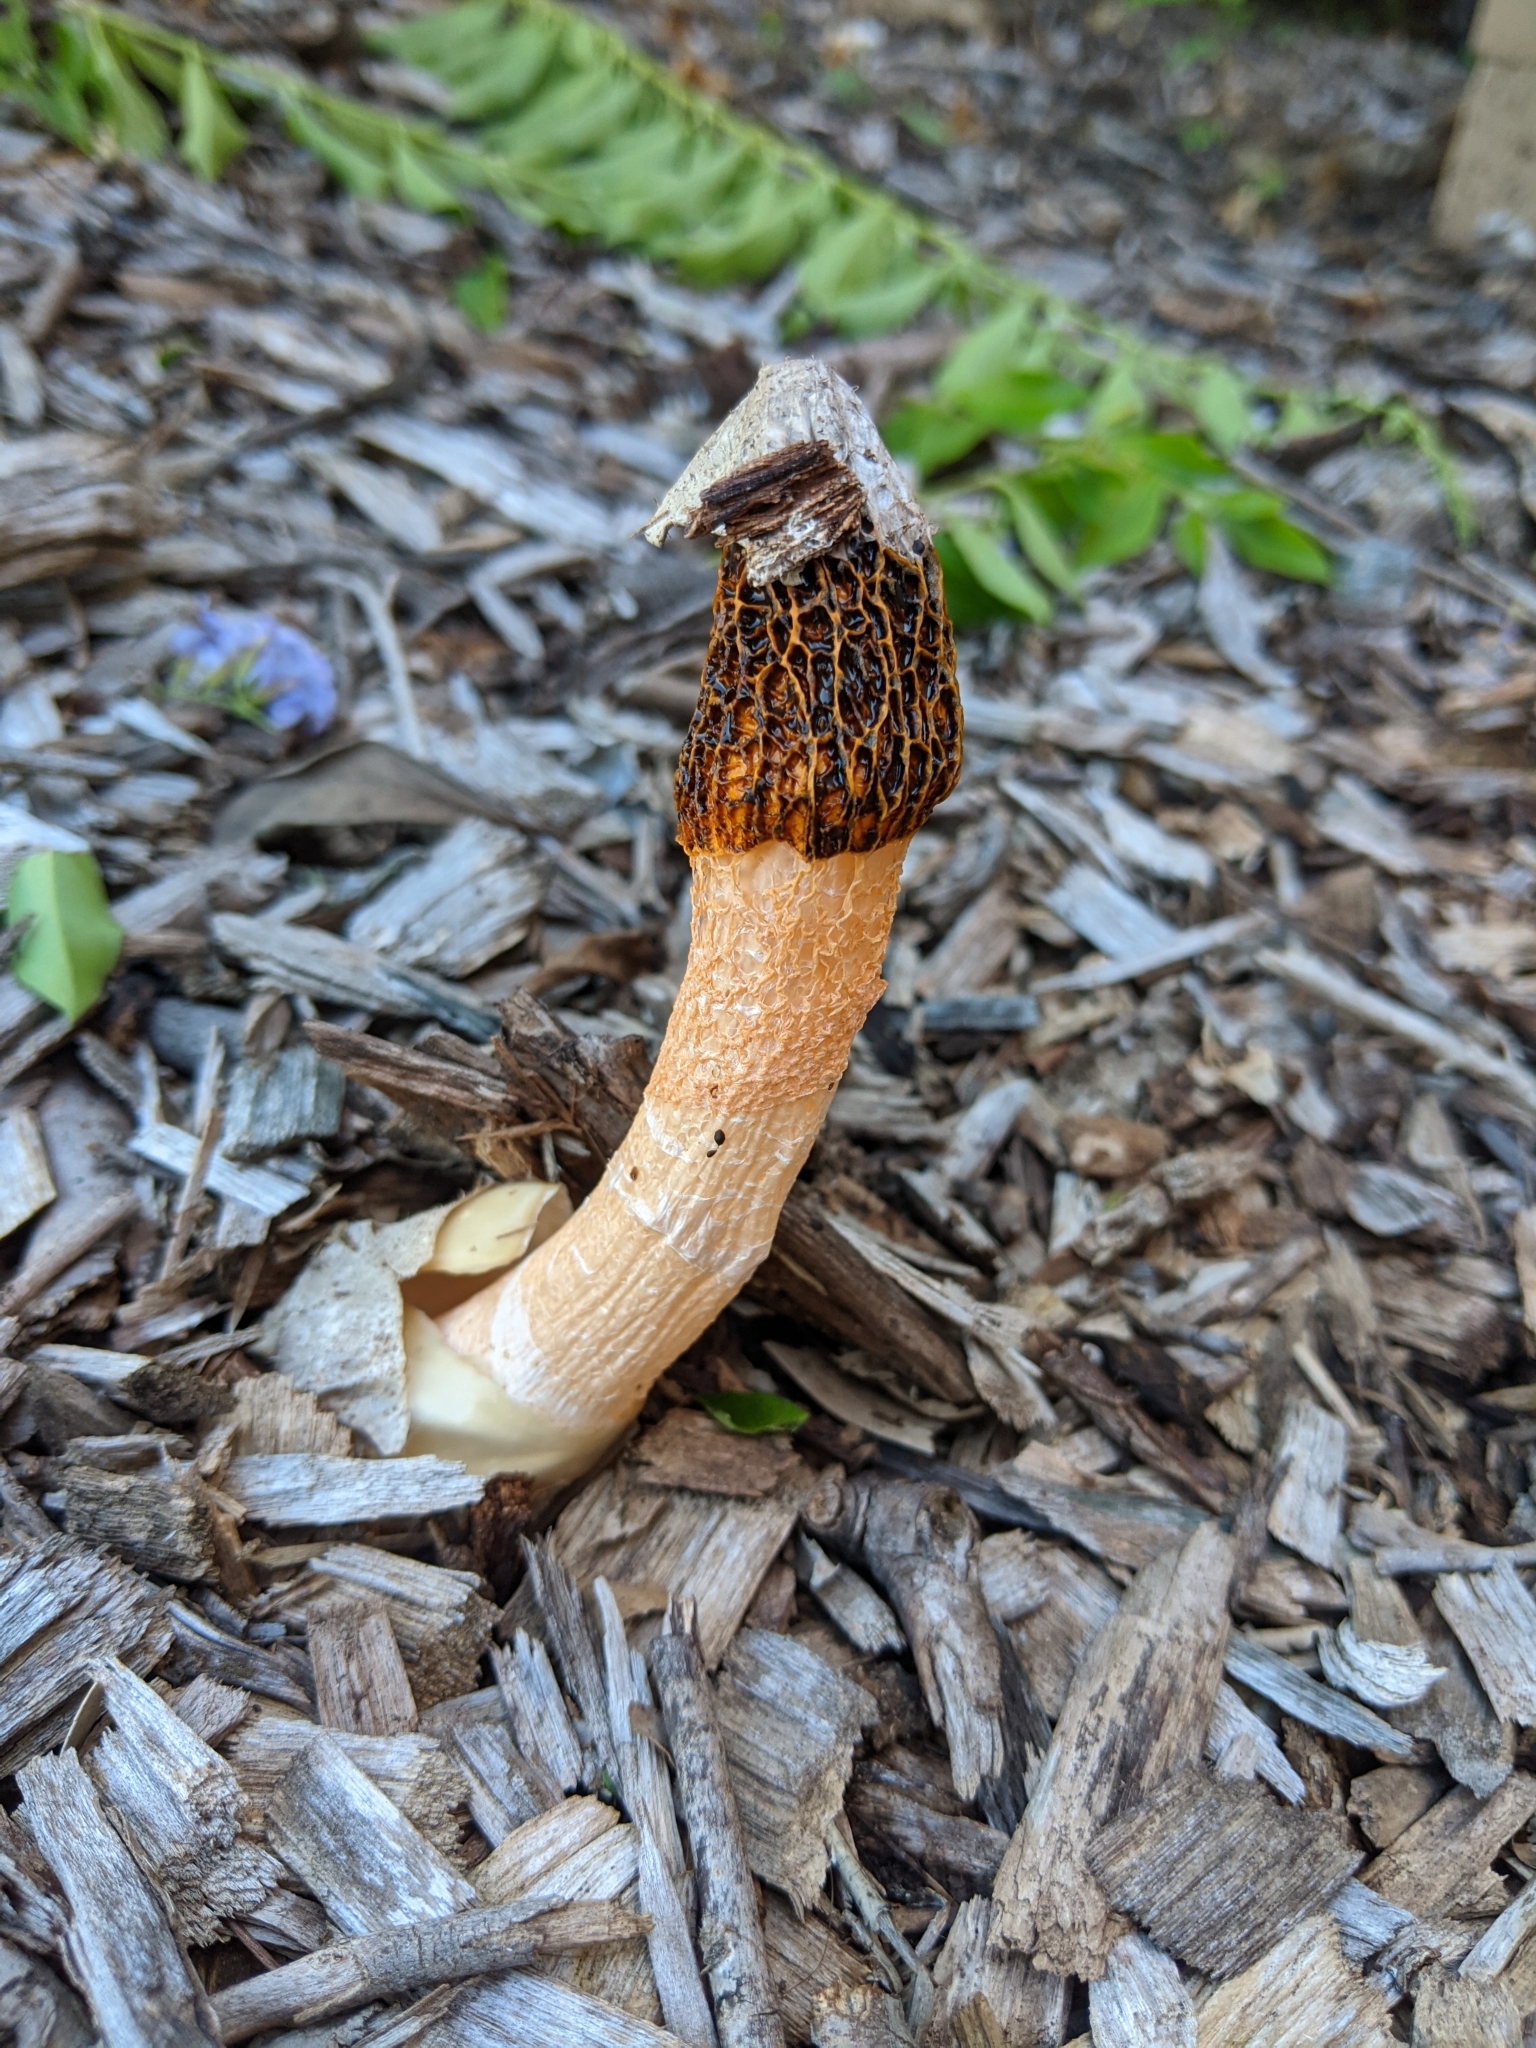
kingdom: Fungi
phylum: Basidiomycota
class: Agaricomycetes
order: Phallales
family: Phallaceae
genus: Phallus
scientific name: Phallus multicolor
